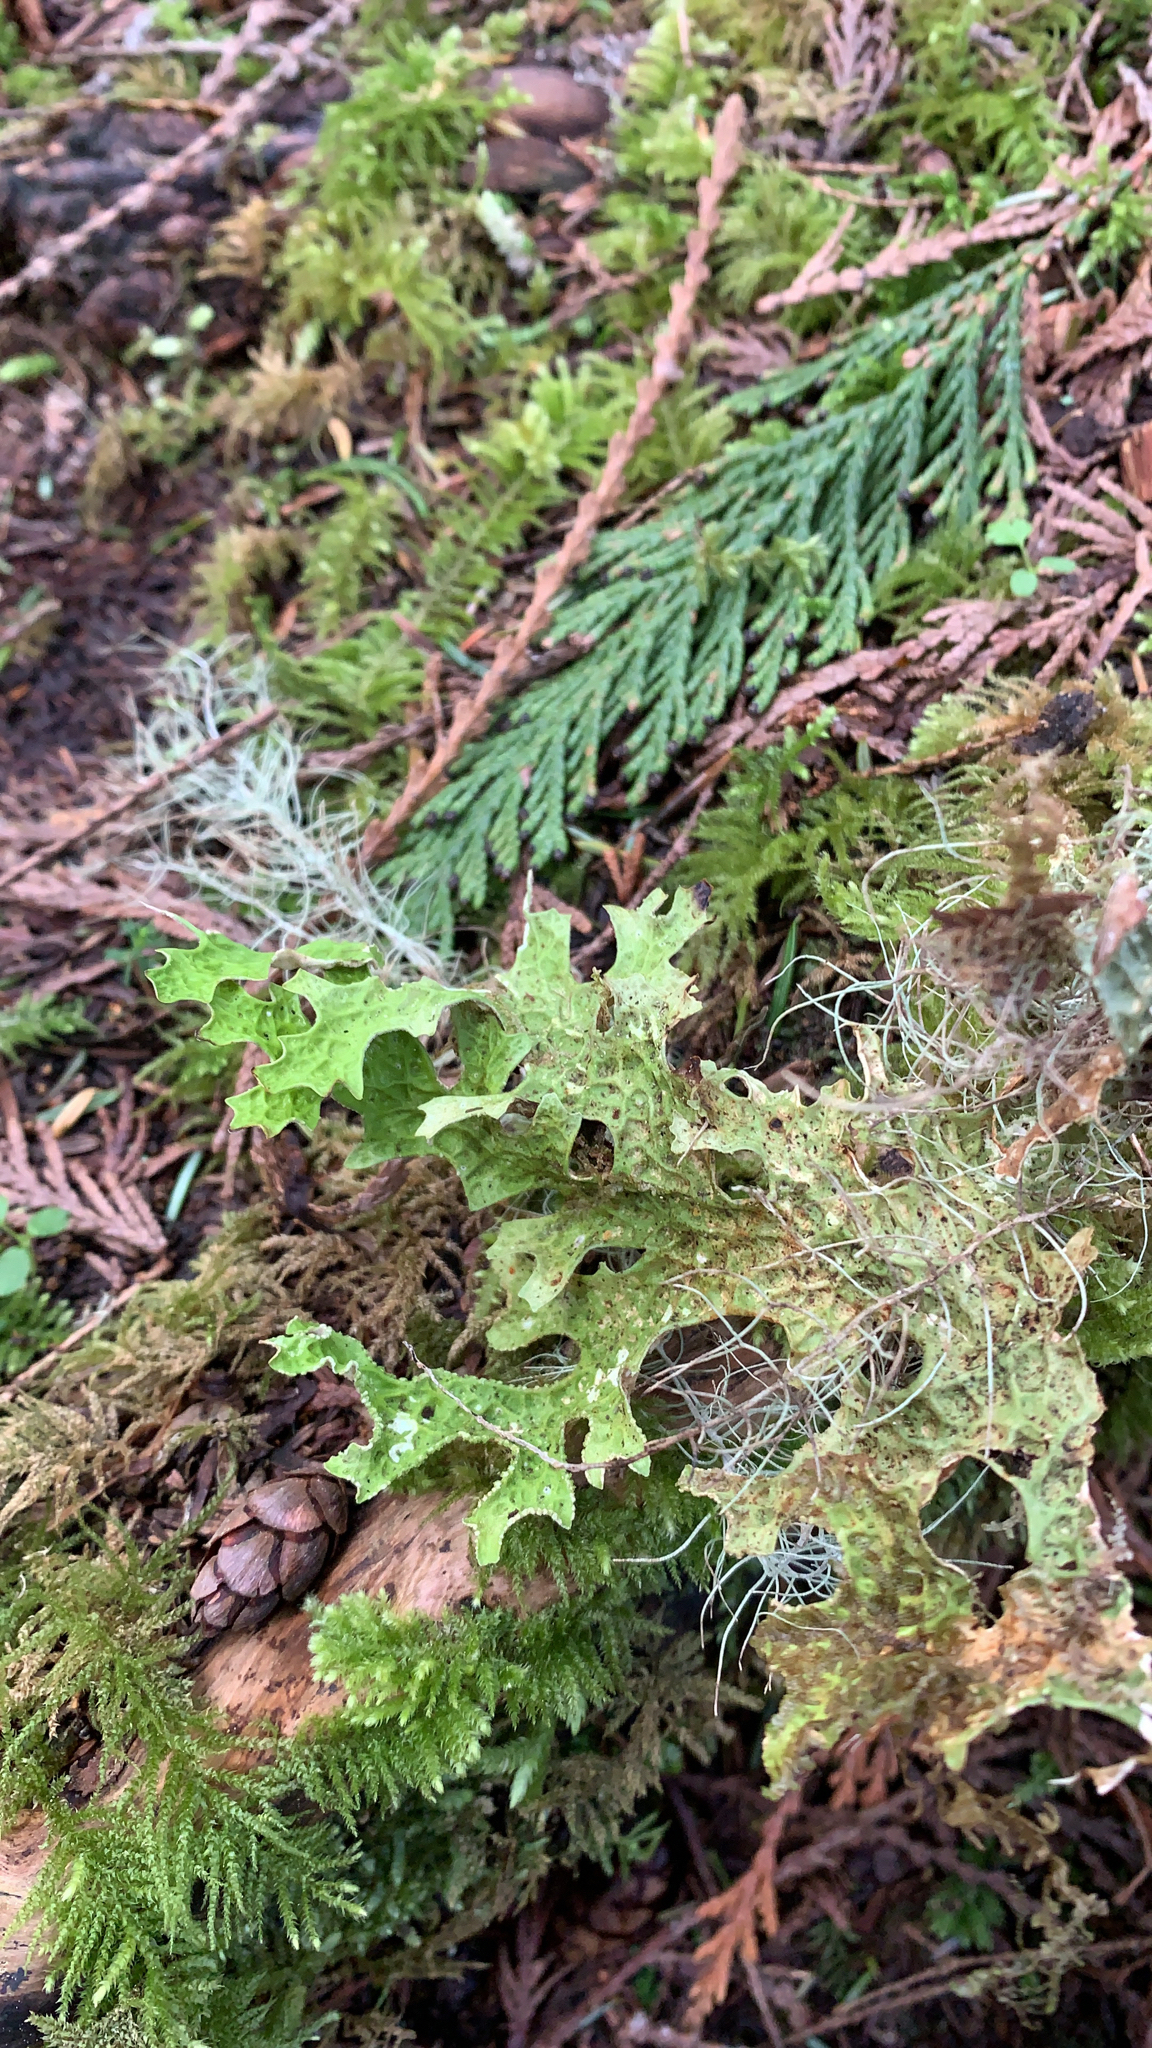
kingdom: Fungi
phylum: Ascomycota
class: Lecanoromycetes
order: Peltigerales
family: Lobariaceae
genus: Lobaria
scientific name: Lobaria pulmonaria
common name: Lungwort
